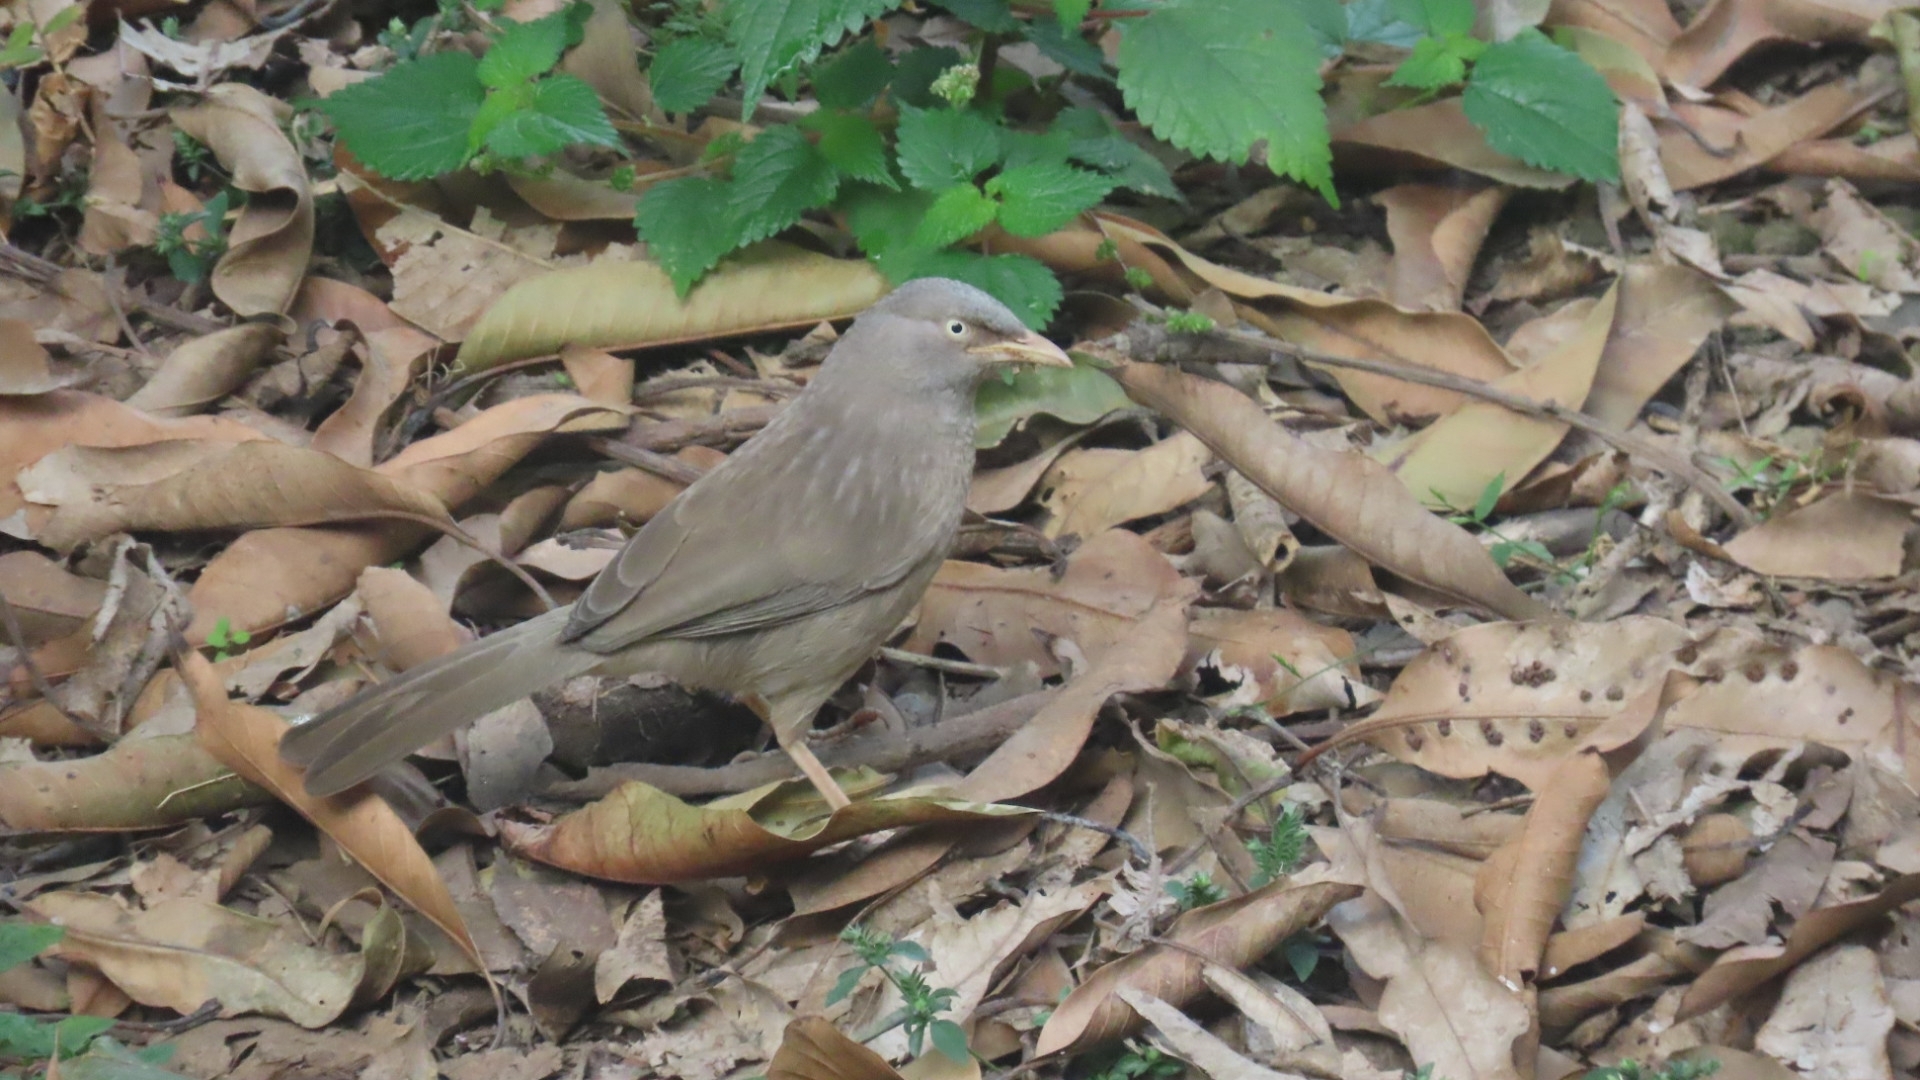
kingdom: Animalia
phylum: Chordata
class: Aves
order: Passeriformes
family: Leiothrichidae
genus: Turdoides
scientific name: Turdoides striata
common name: Jungle babbler
